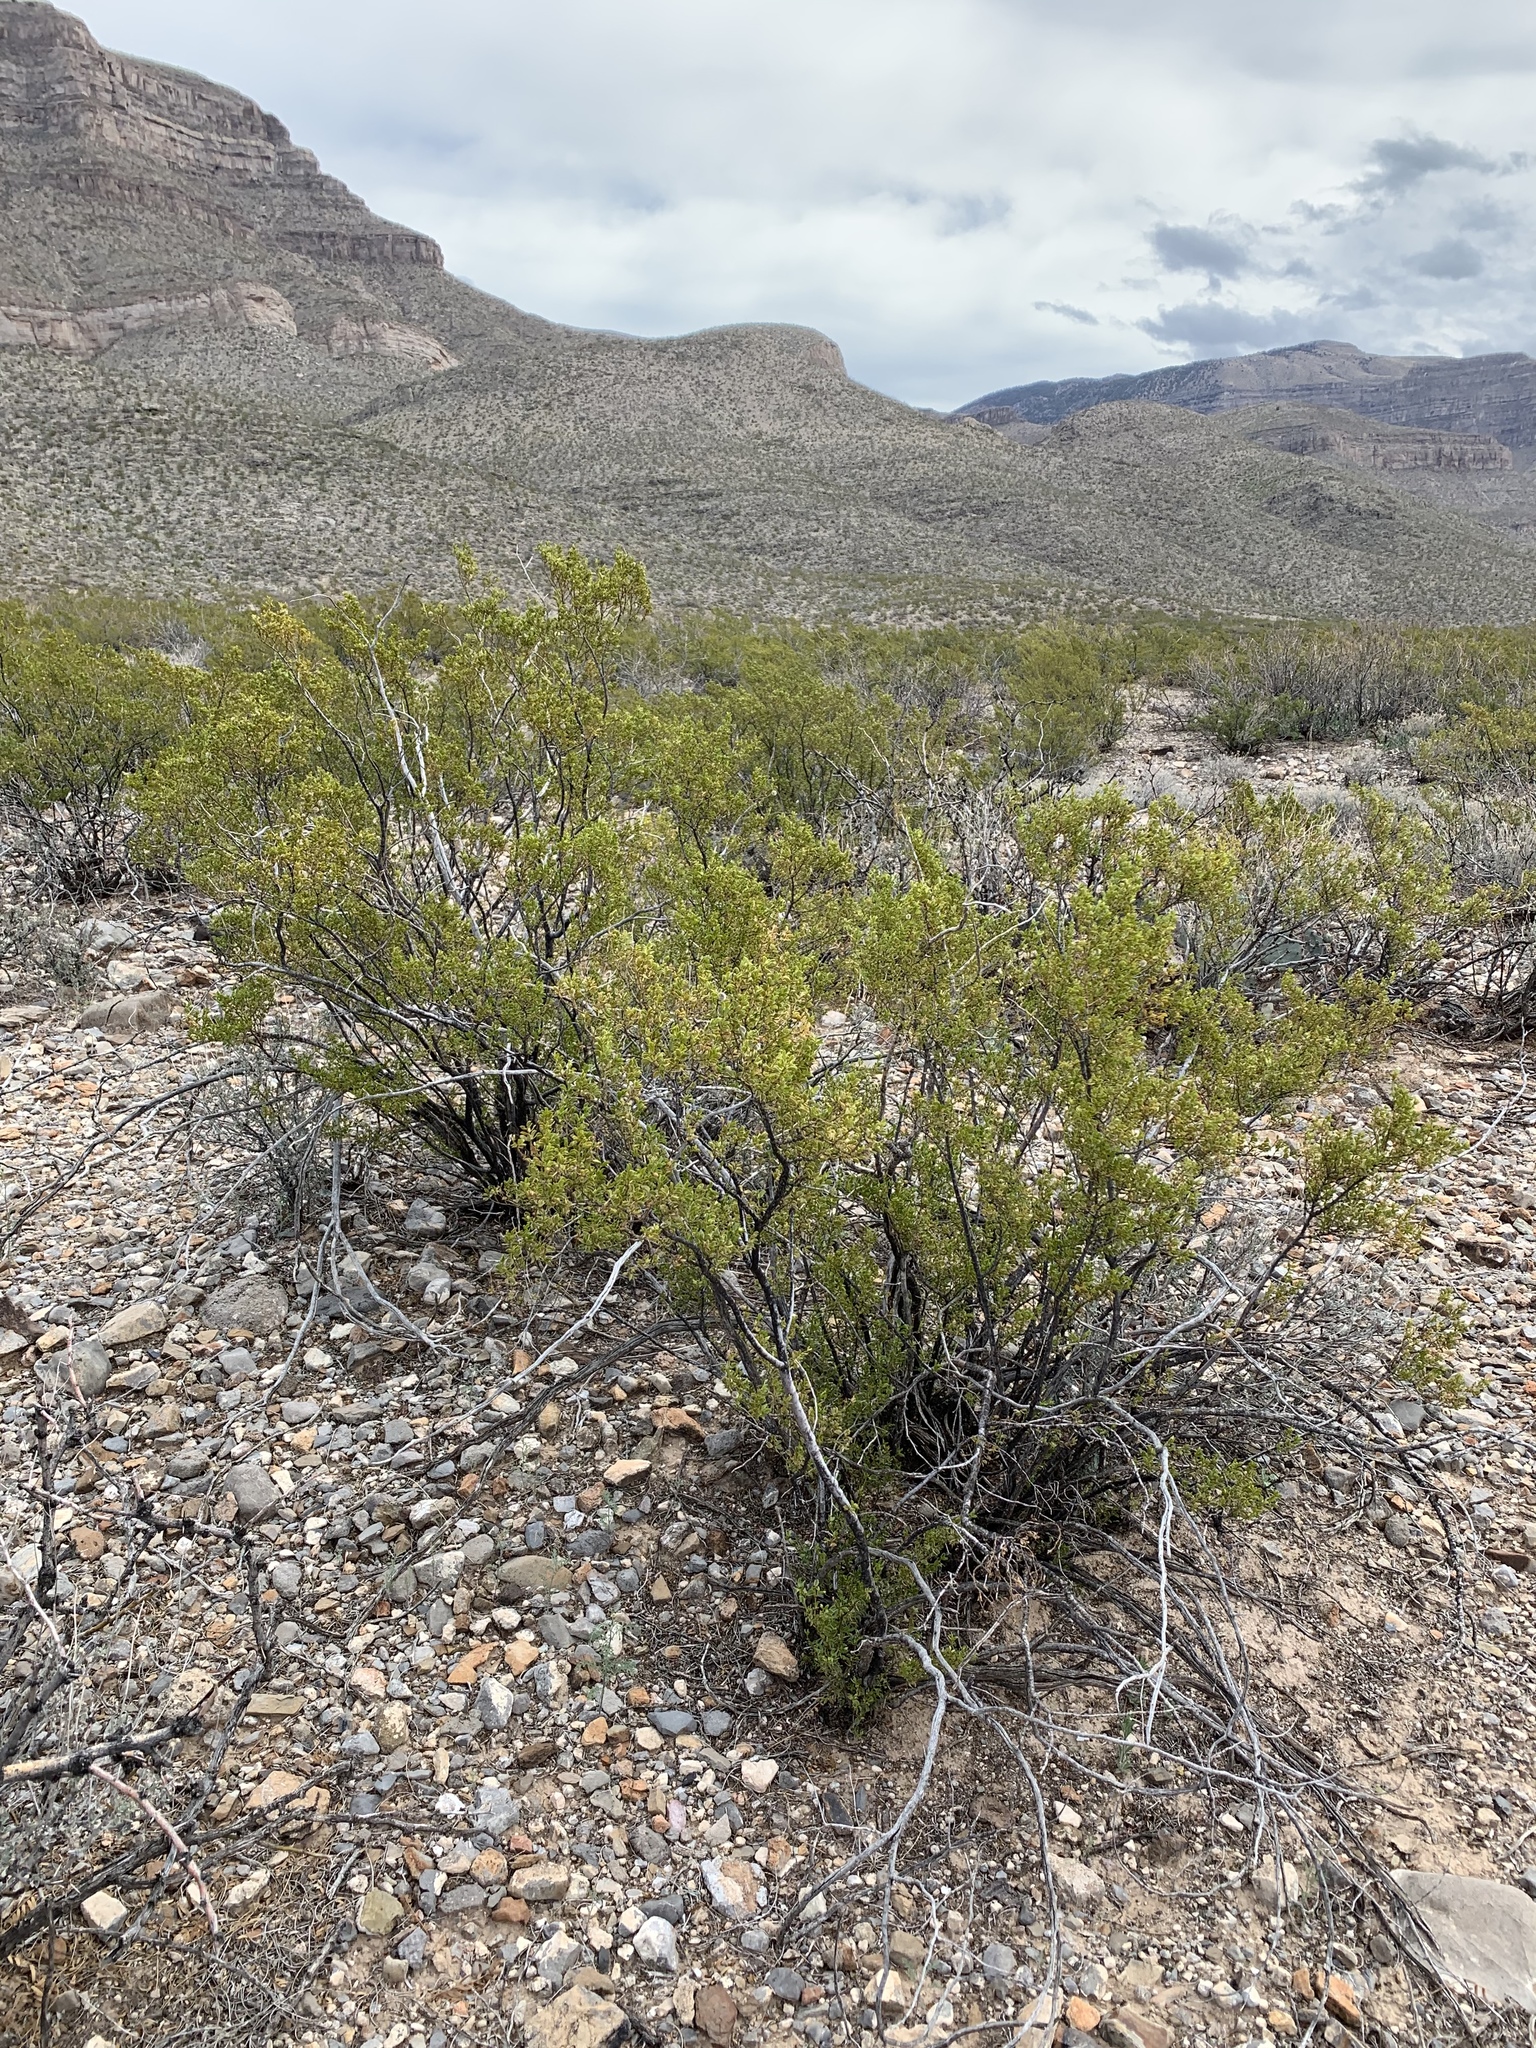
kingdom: Plantae
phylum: Tracheophyta
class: Magnoliopsida
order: Zygophyllales
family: Zygophyllaceae
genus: Larrea
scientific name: Larrea tridentata
